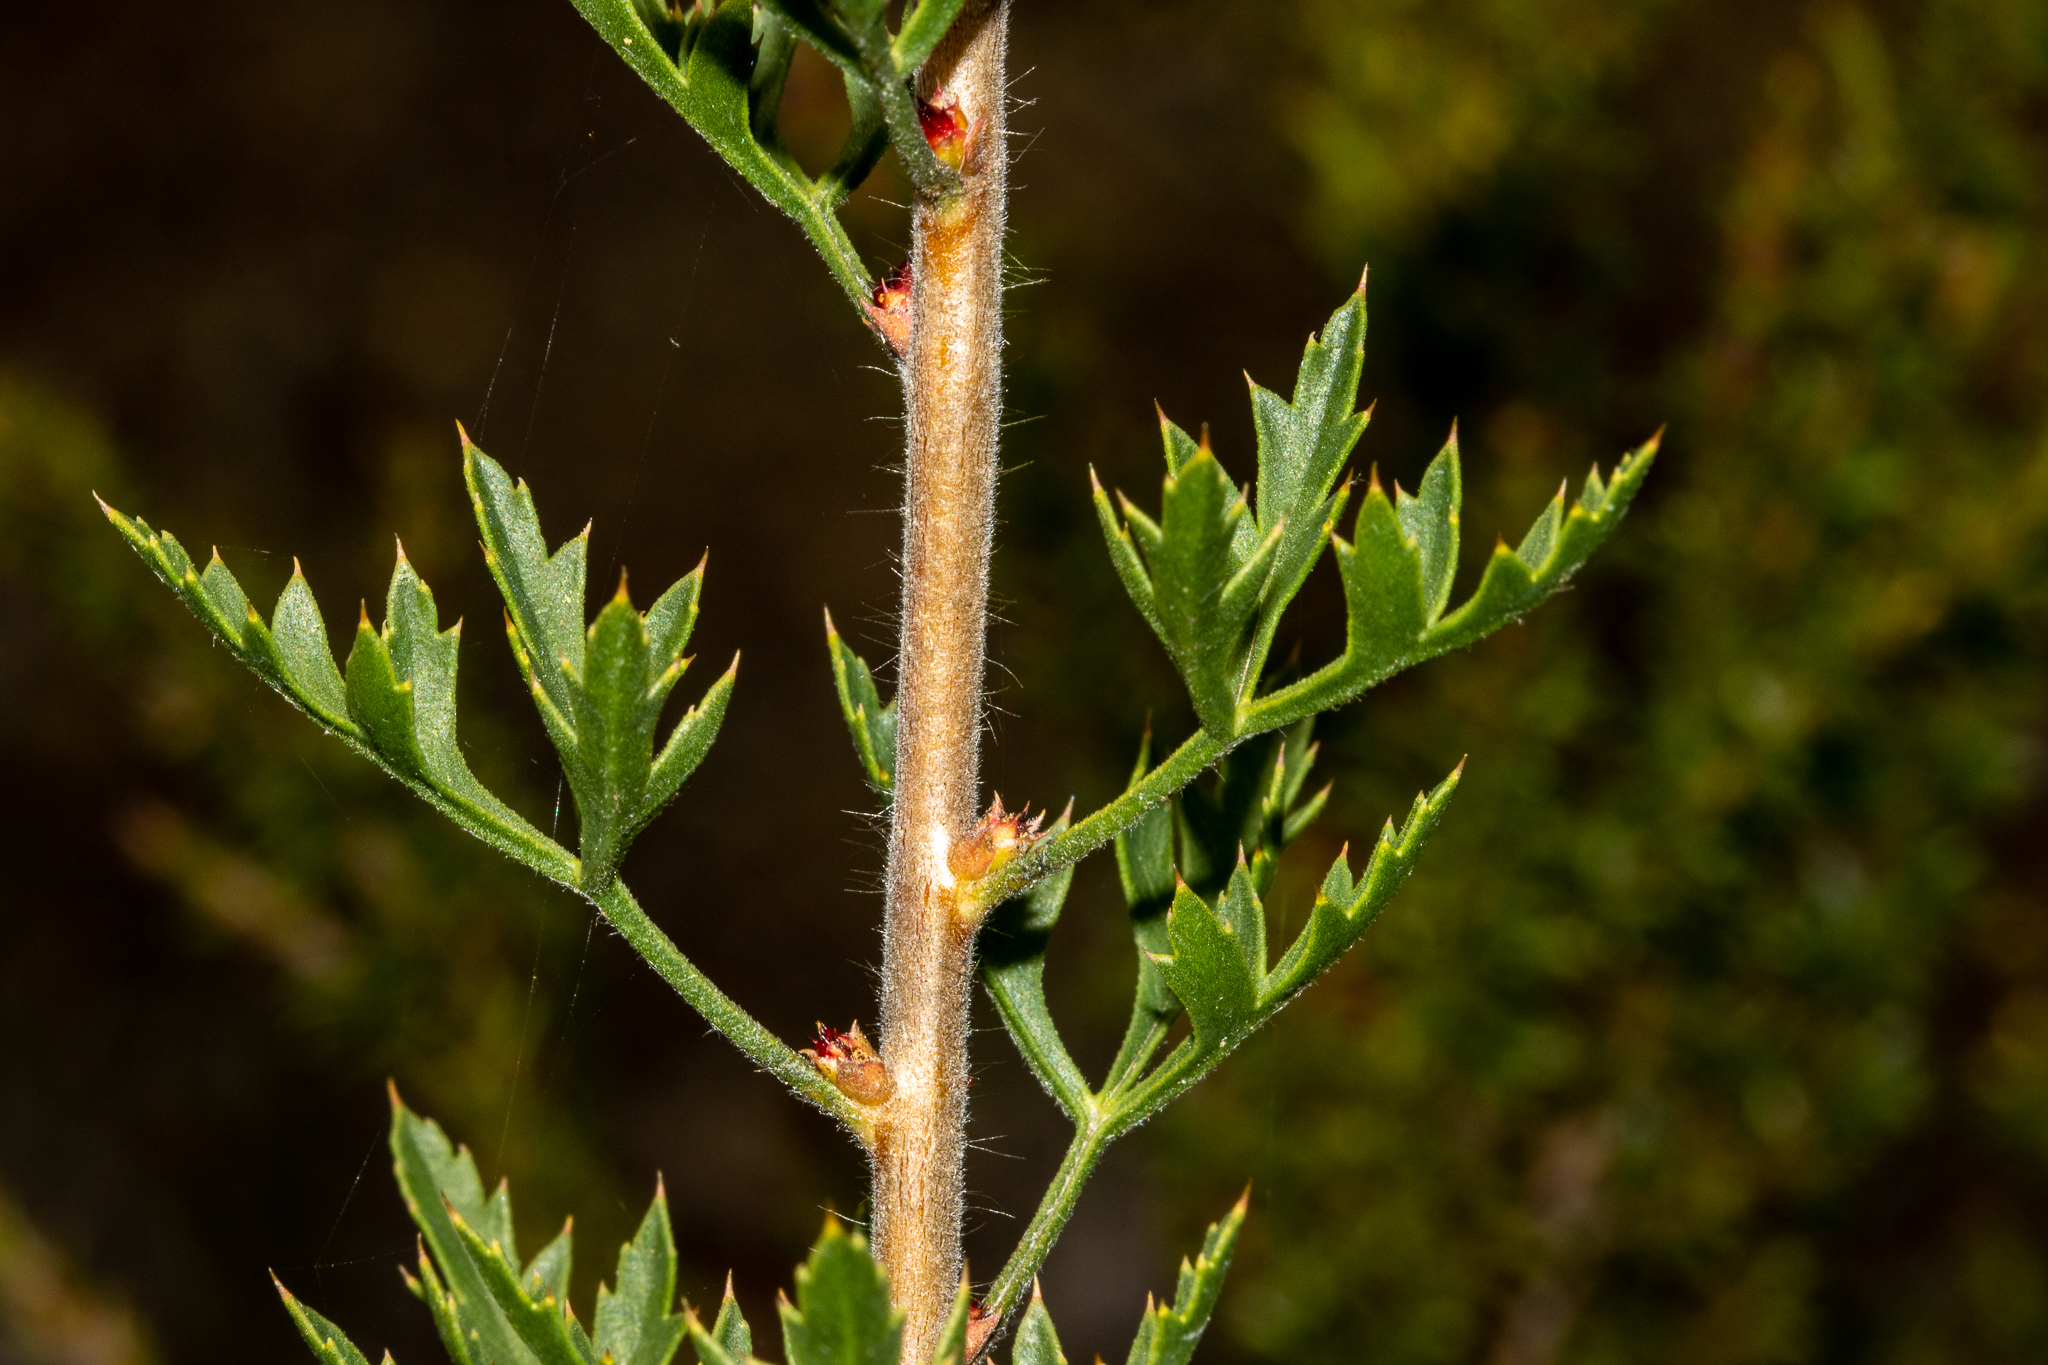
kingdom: Plantae
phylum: Tracheophyta
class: Magnoliopsida
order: Proteales
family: Proteaceae
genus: Petrophile
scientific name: Petrophile diversifolia
